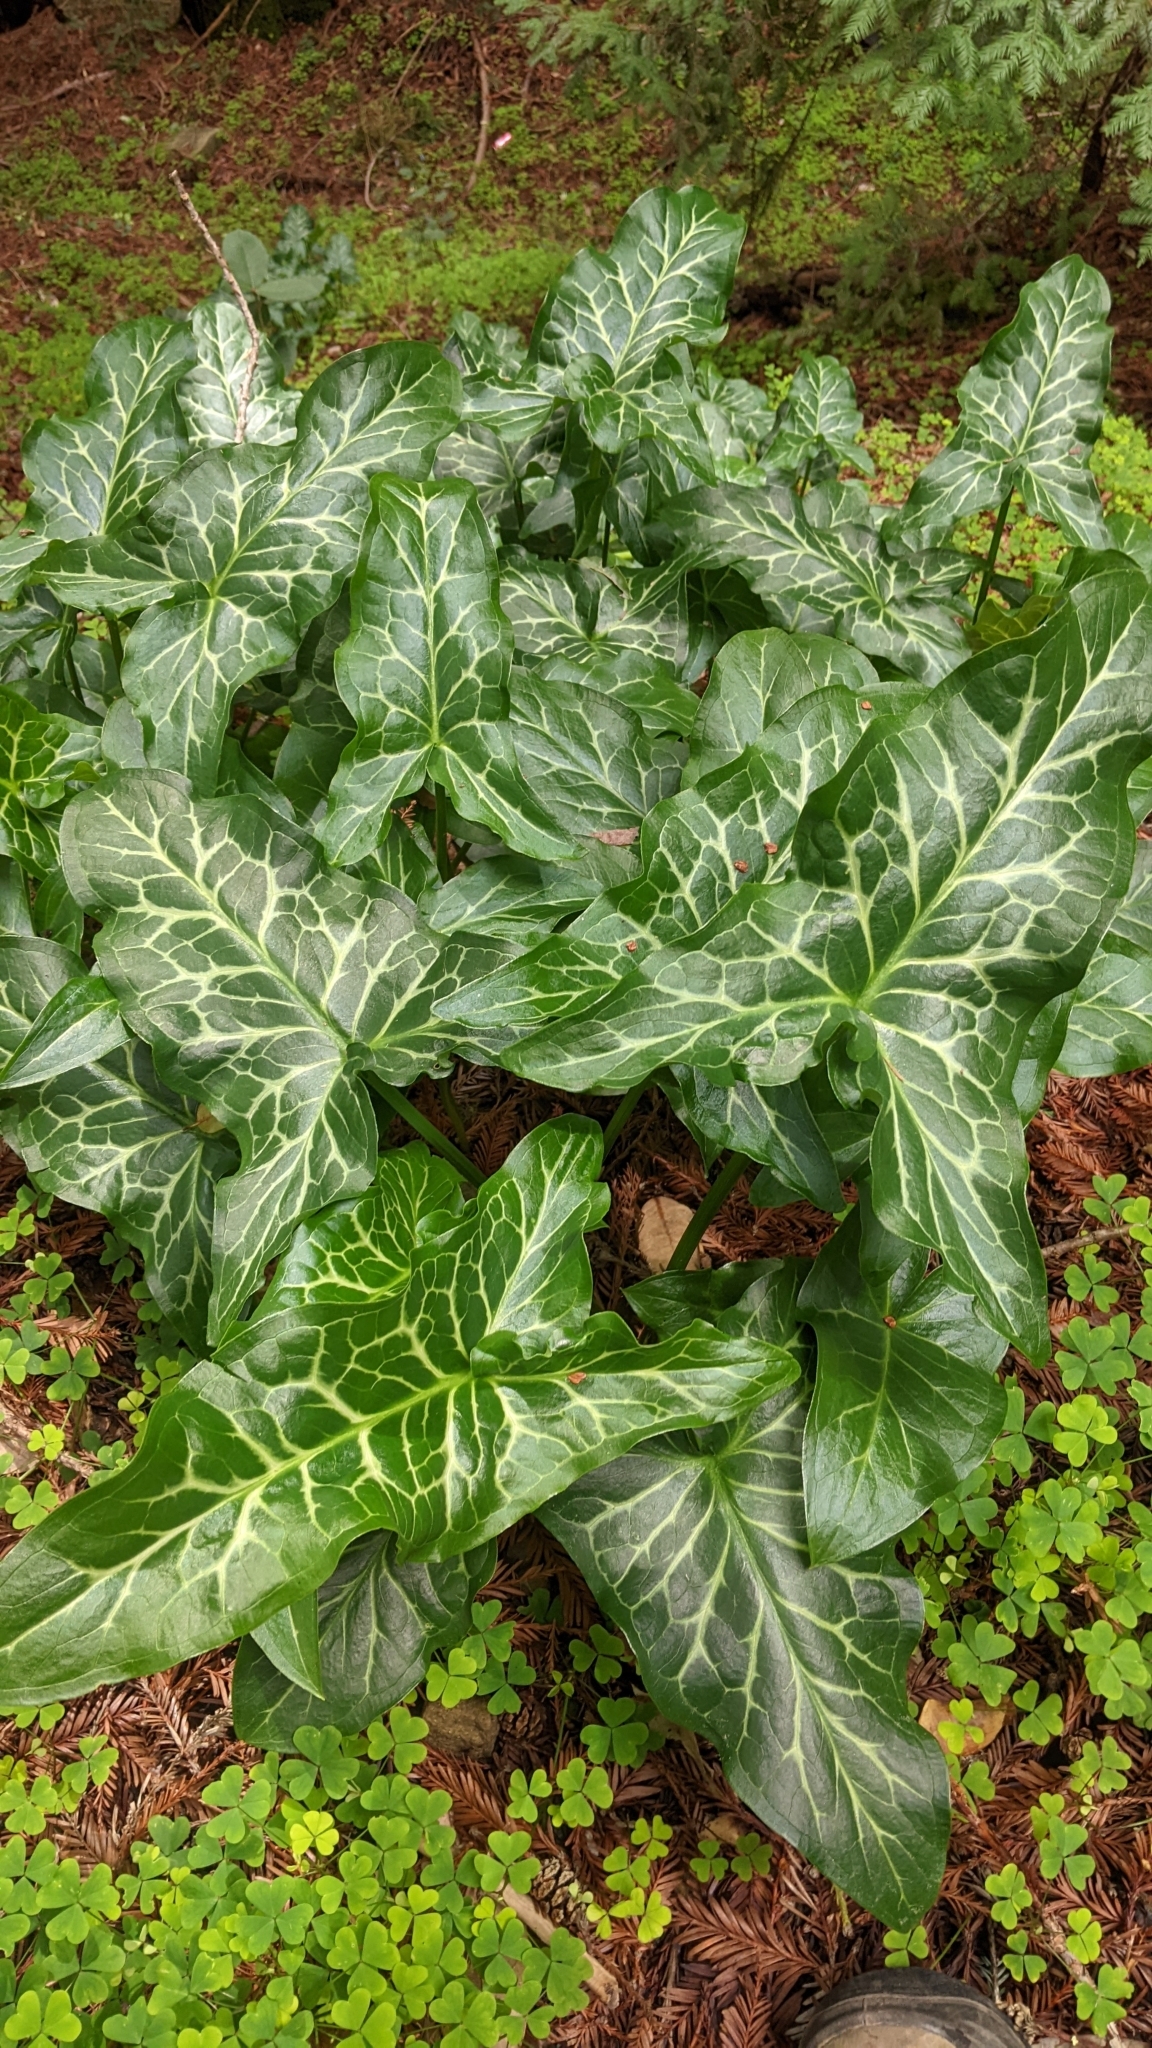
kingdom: Plantae
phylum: Tracheophyta
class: Liliopsida
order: Alismatales
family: Araceae
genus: Arum
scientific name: Arum italicum
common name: Italian lords-and-ladies
